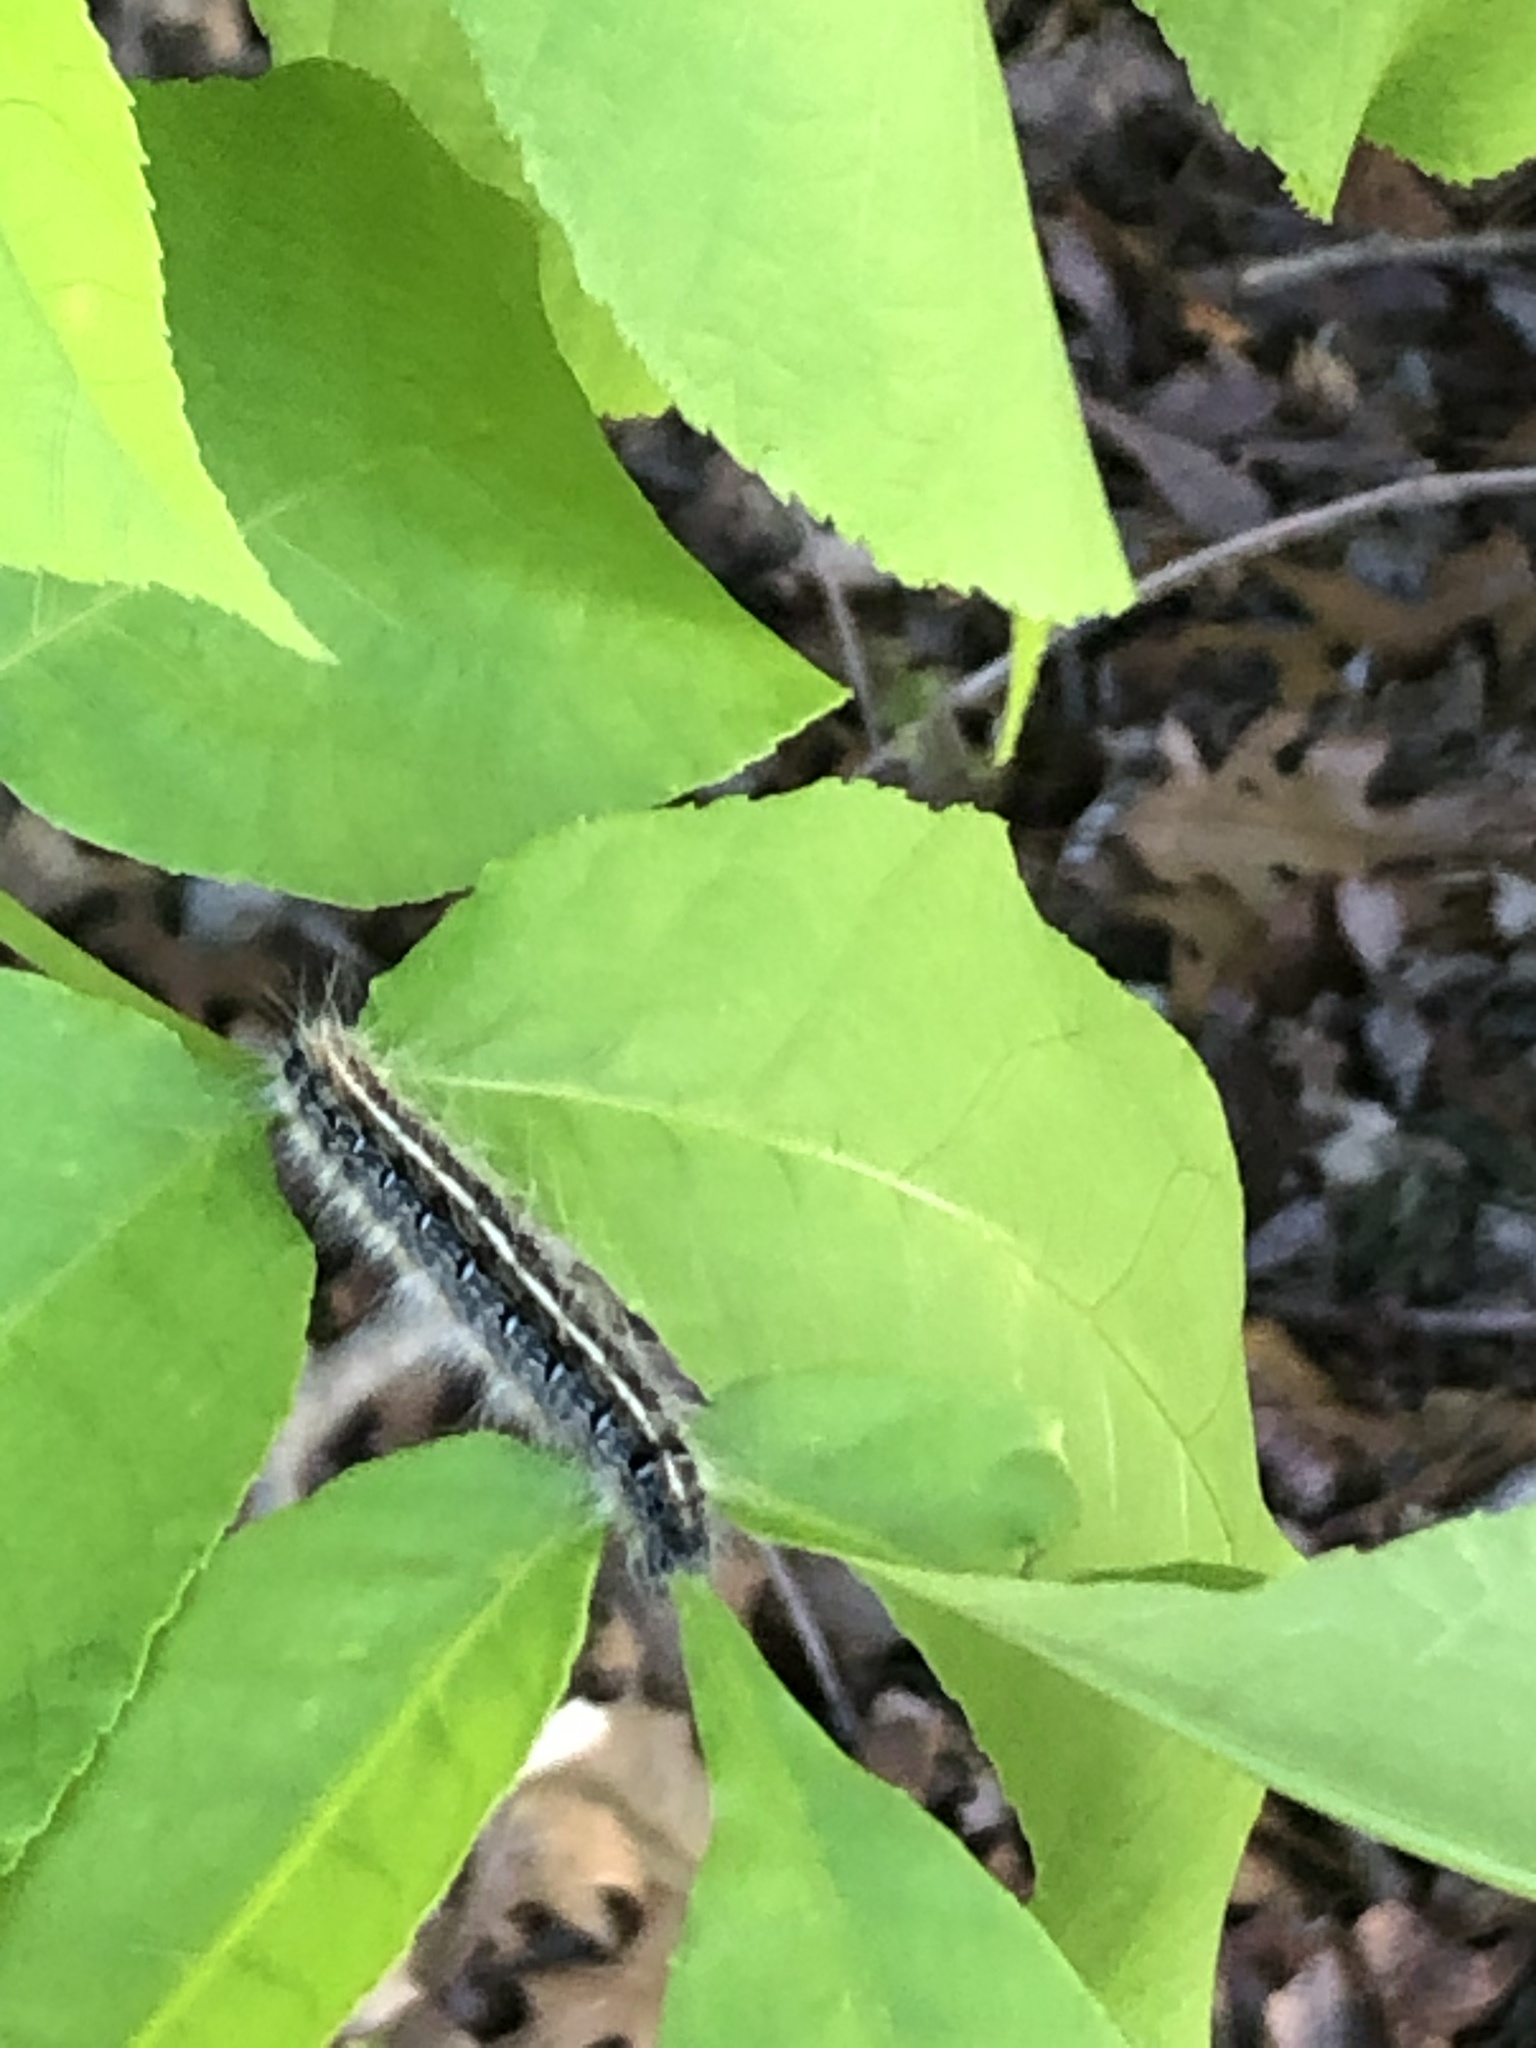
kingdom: Animalia
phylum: Arthropoda
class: Insecta
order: Lepidoptera
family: Lasiocampidae
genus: Malacosoma
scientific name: Malacosoma americana
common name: Eastern tent caterpillar moth
